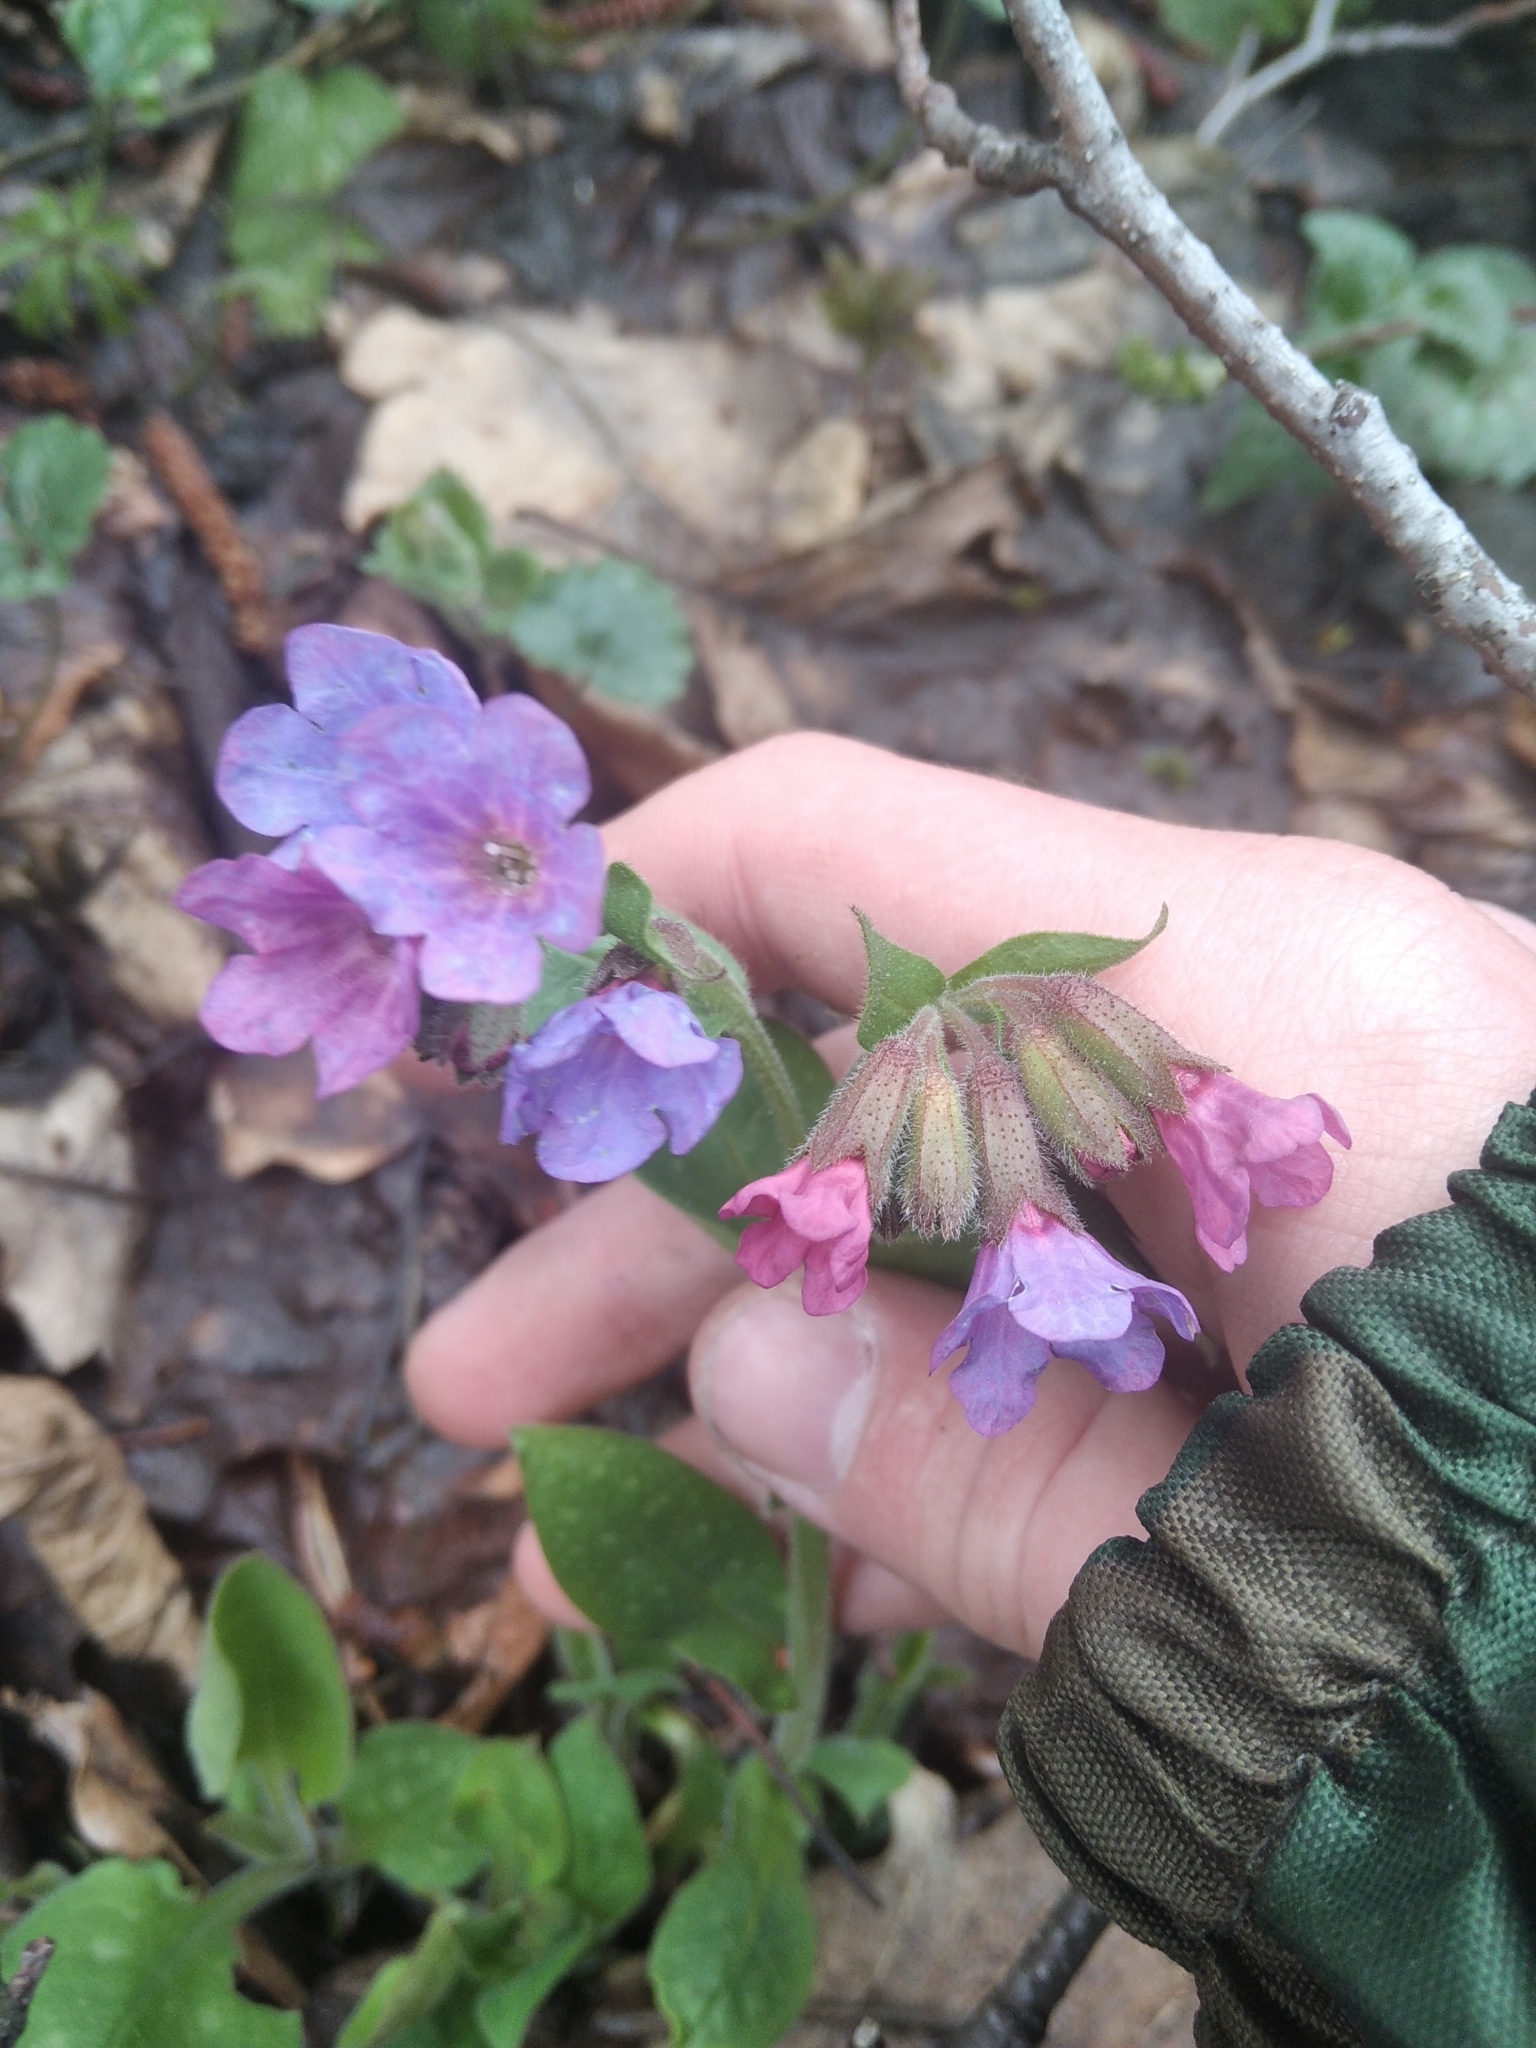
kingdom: Plantae
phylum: Tracheophyta
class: Magnoliopsida
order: Boraginales
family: Boraginaceae
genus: Pulmonaria
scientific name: Pulmonaria obscura
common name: Suffolk lungwort
